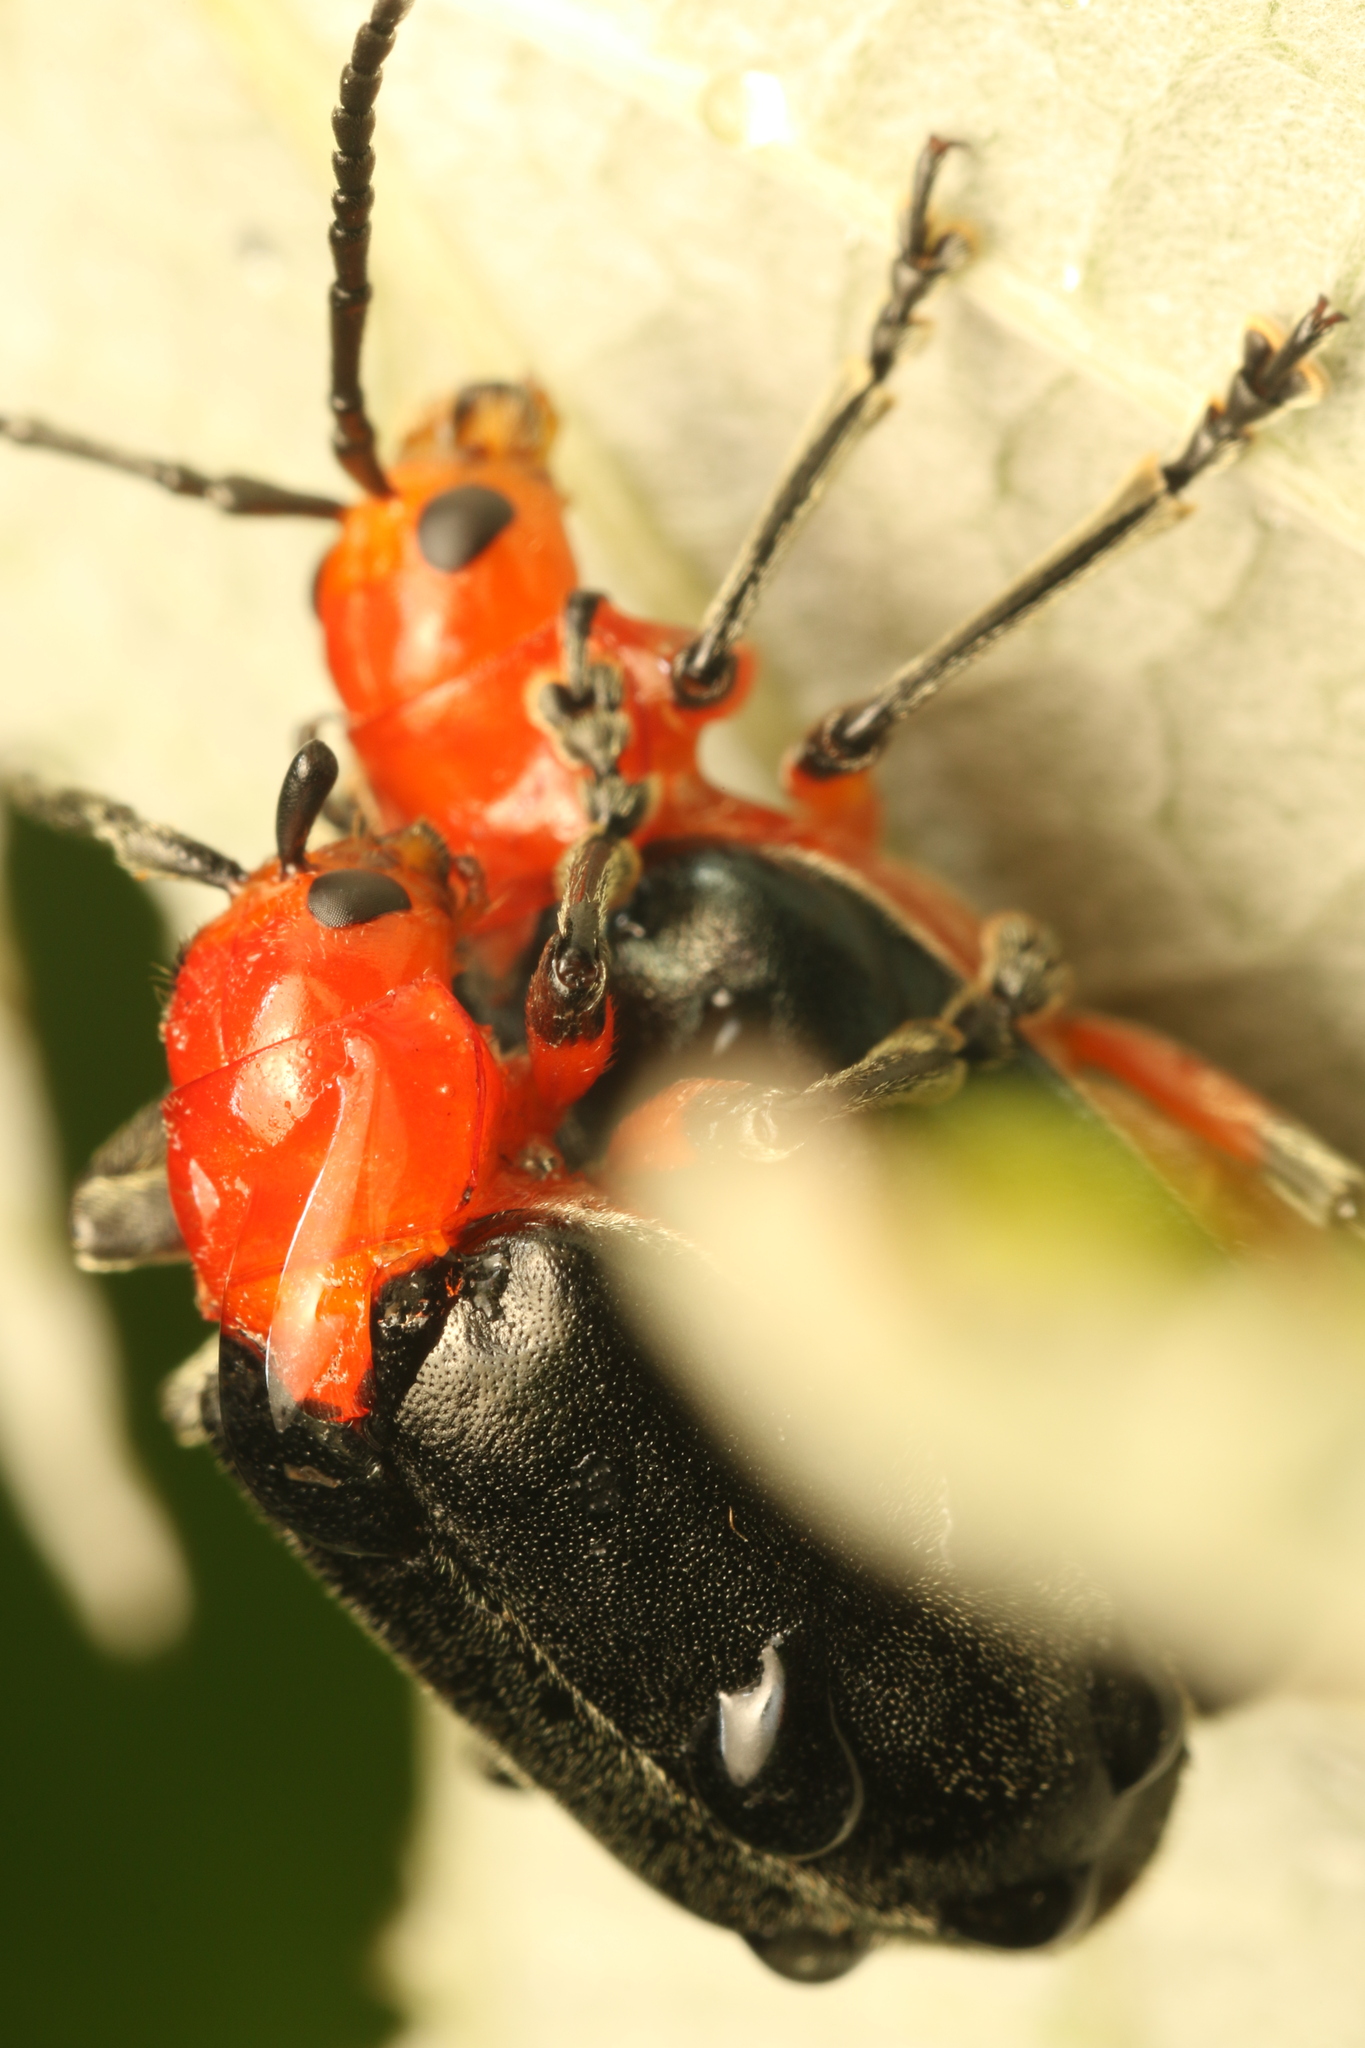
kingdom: Animalia
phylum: Arthropoda
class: Insecta
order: Coleoptera
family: Chrysomelidae
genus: Coelomera
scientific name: Coelomera
